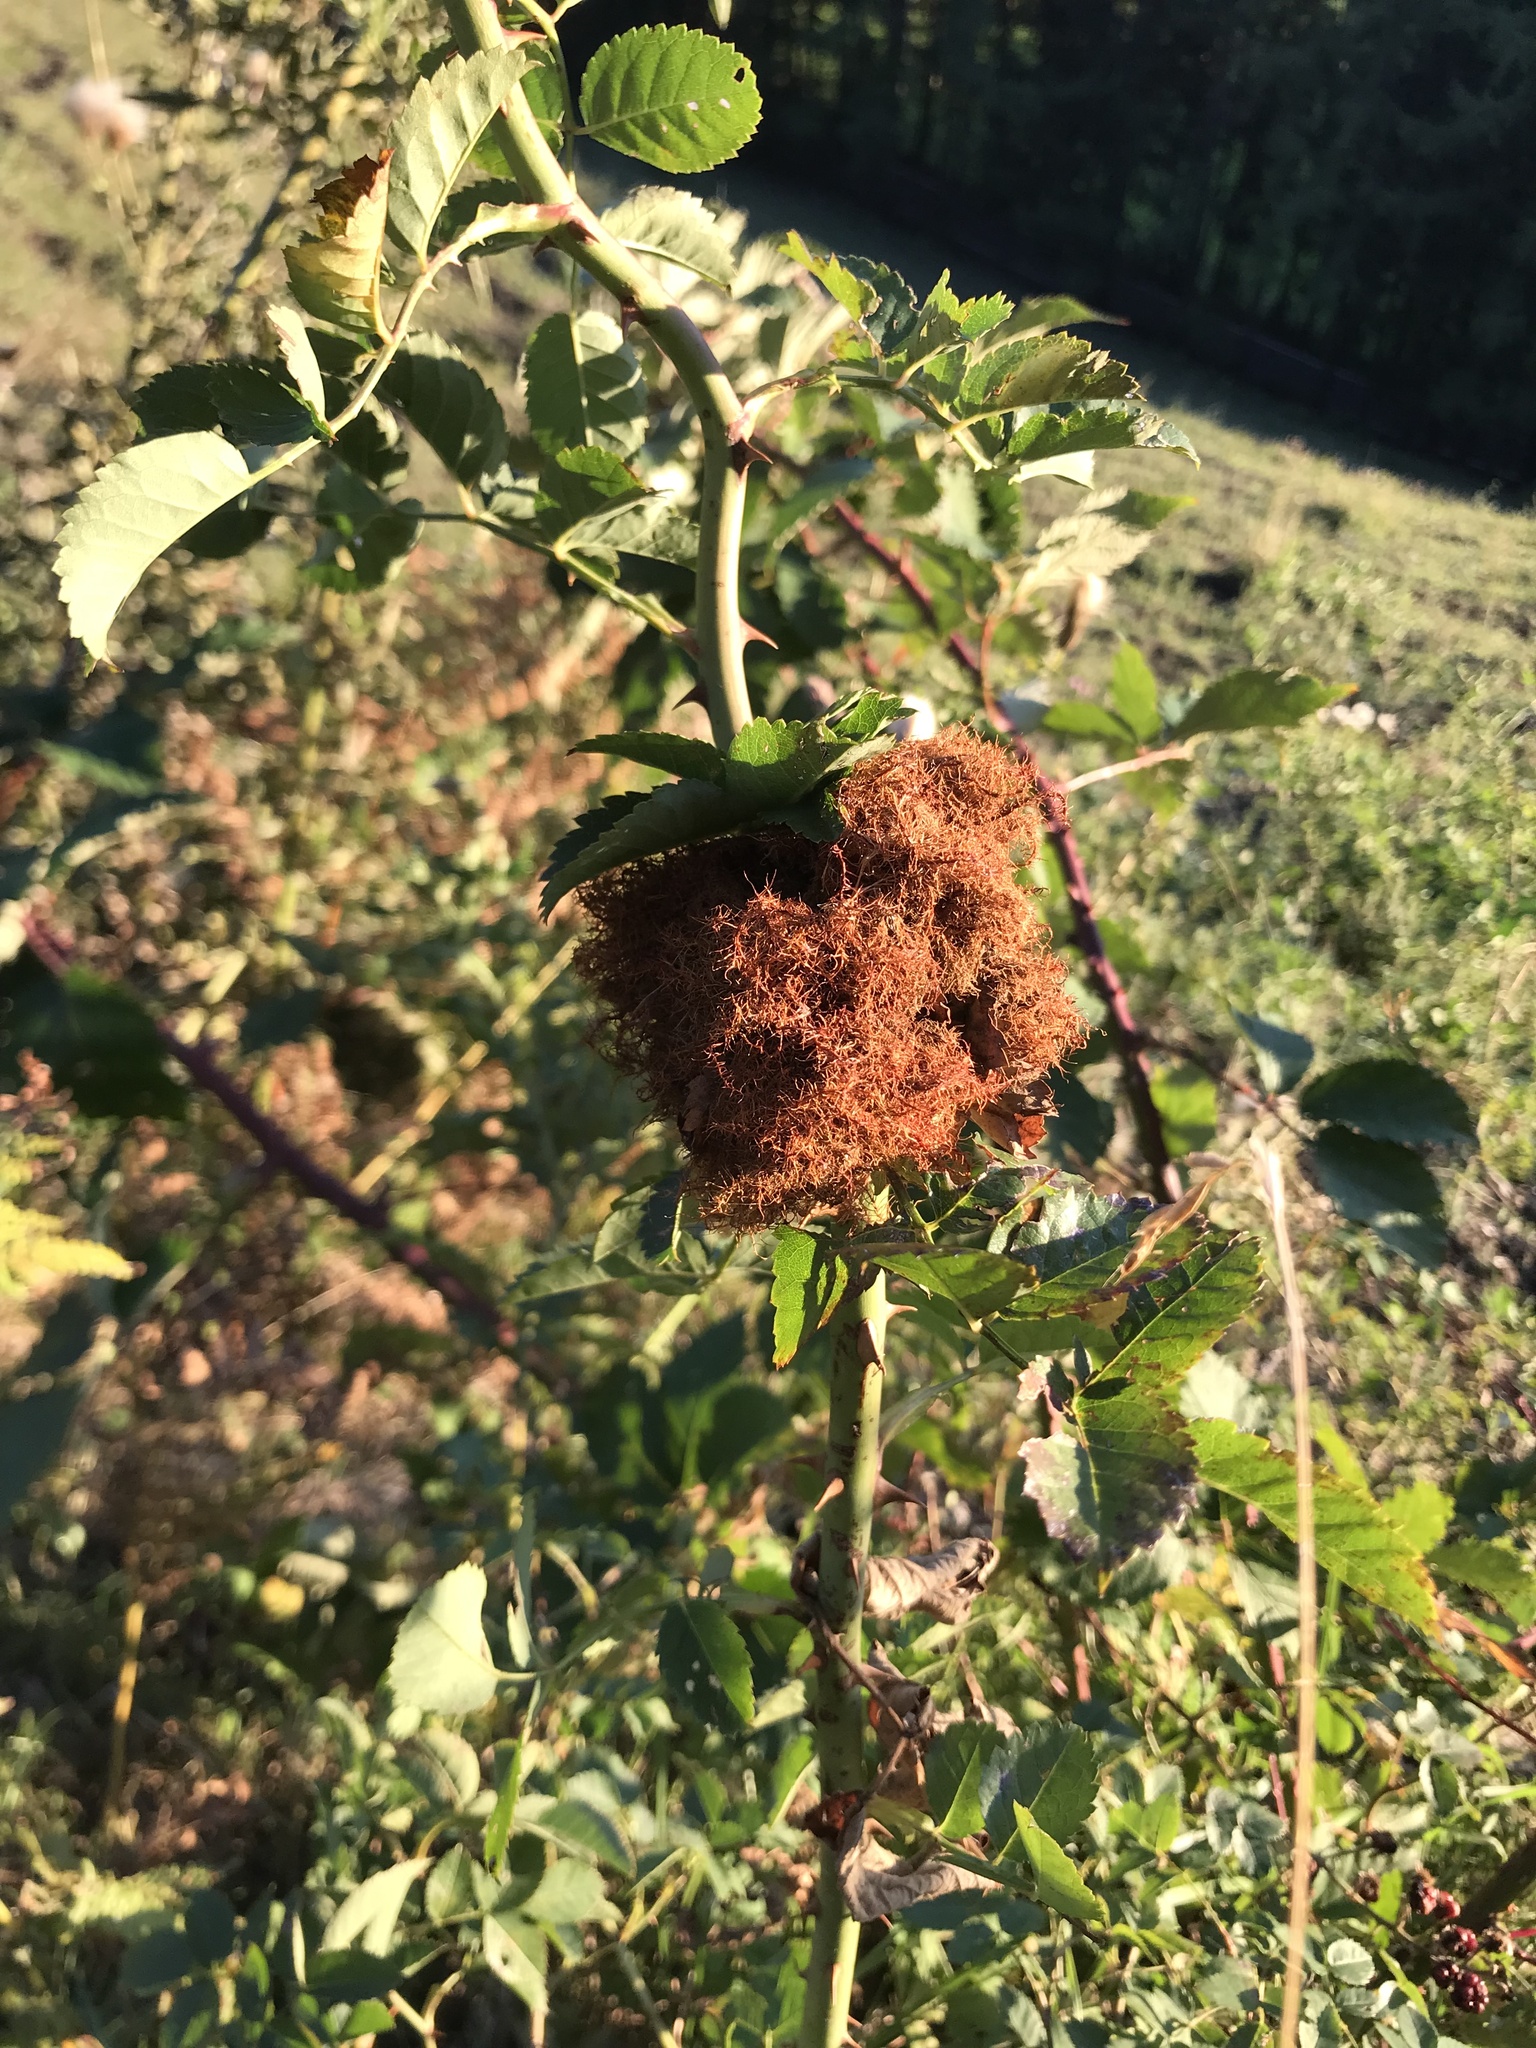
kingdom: Animalia
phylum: Arthropoda
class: Insecta
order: Hymenoptera
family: Cynipidae
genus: Diplolepis
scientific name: Diplolepis rosae
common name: Bedeguar gall
